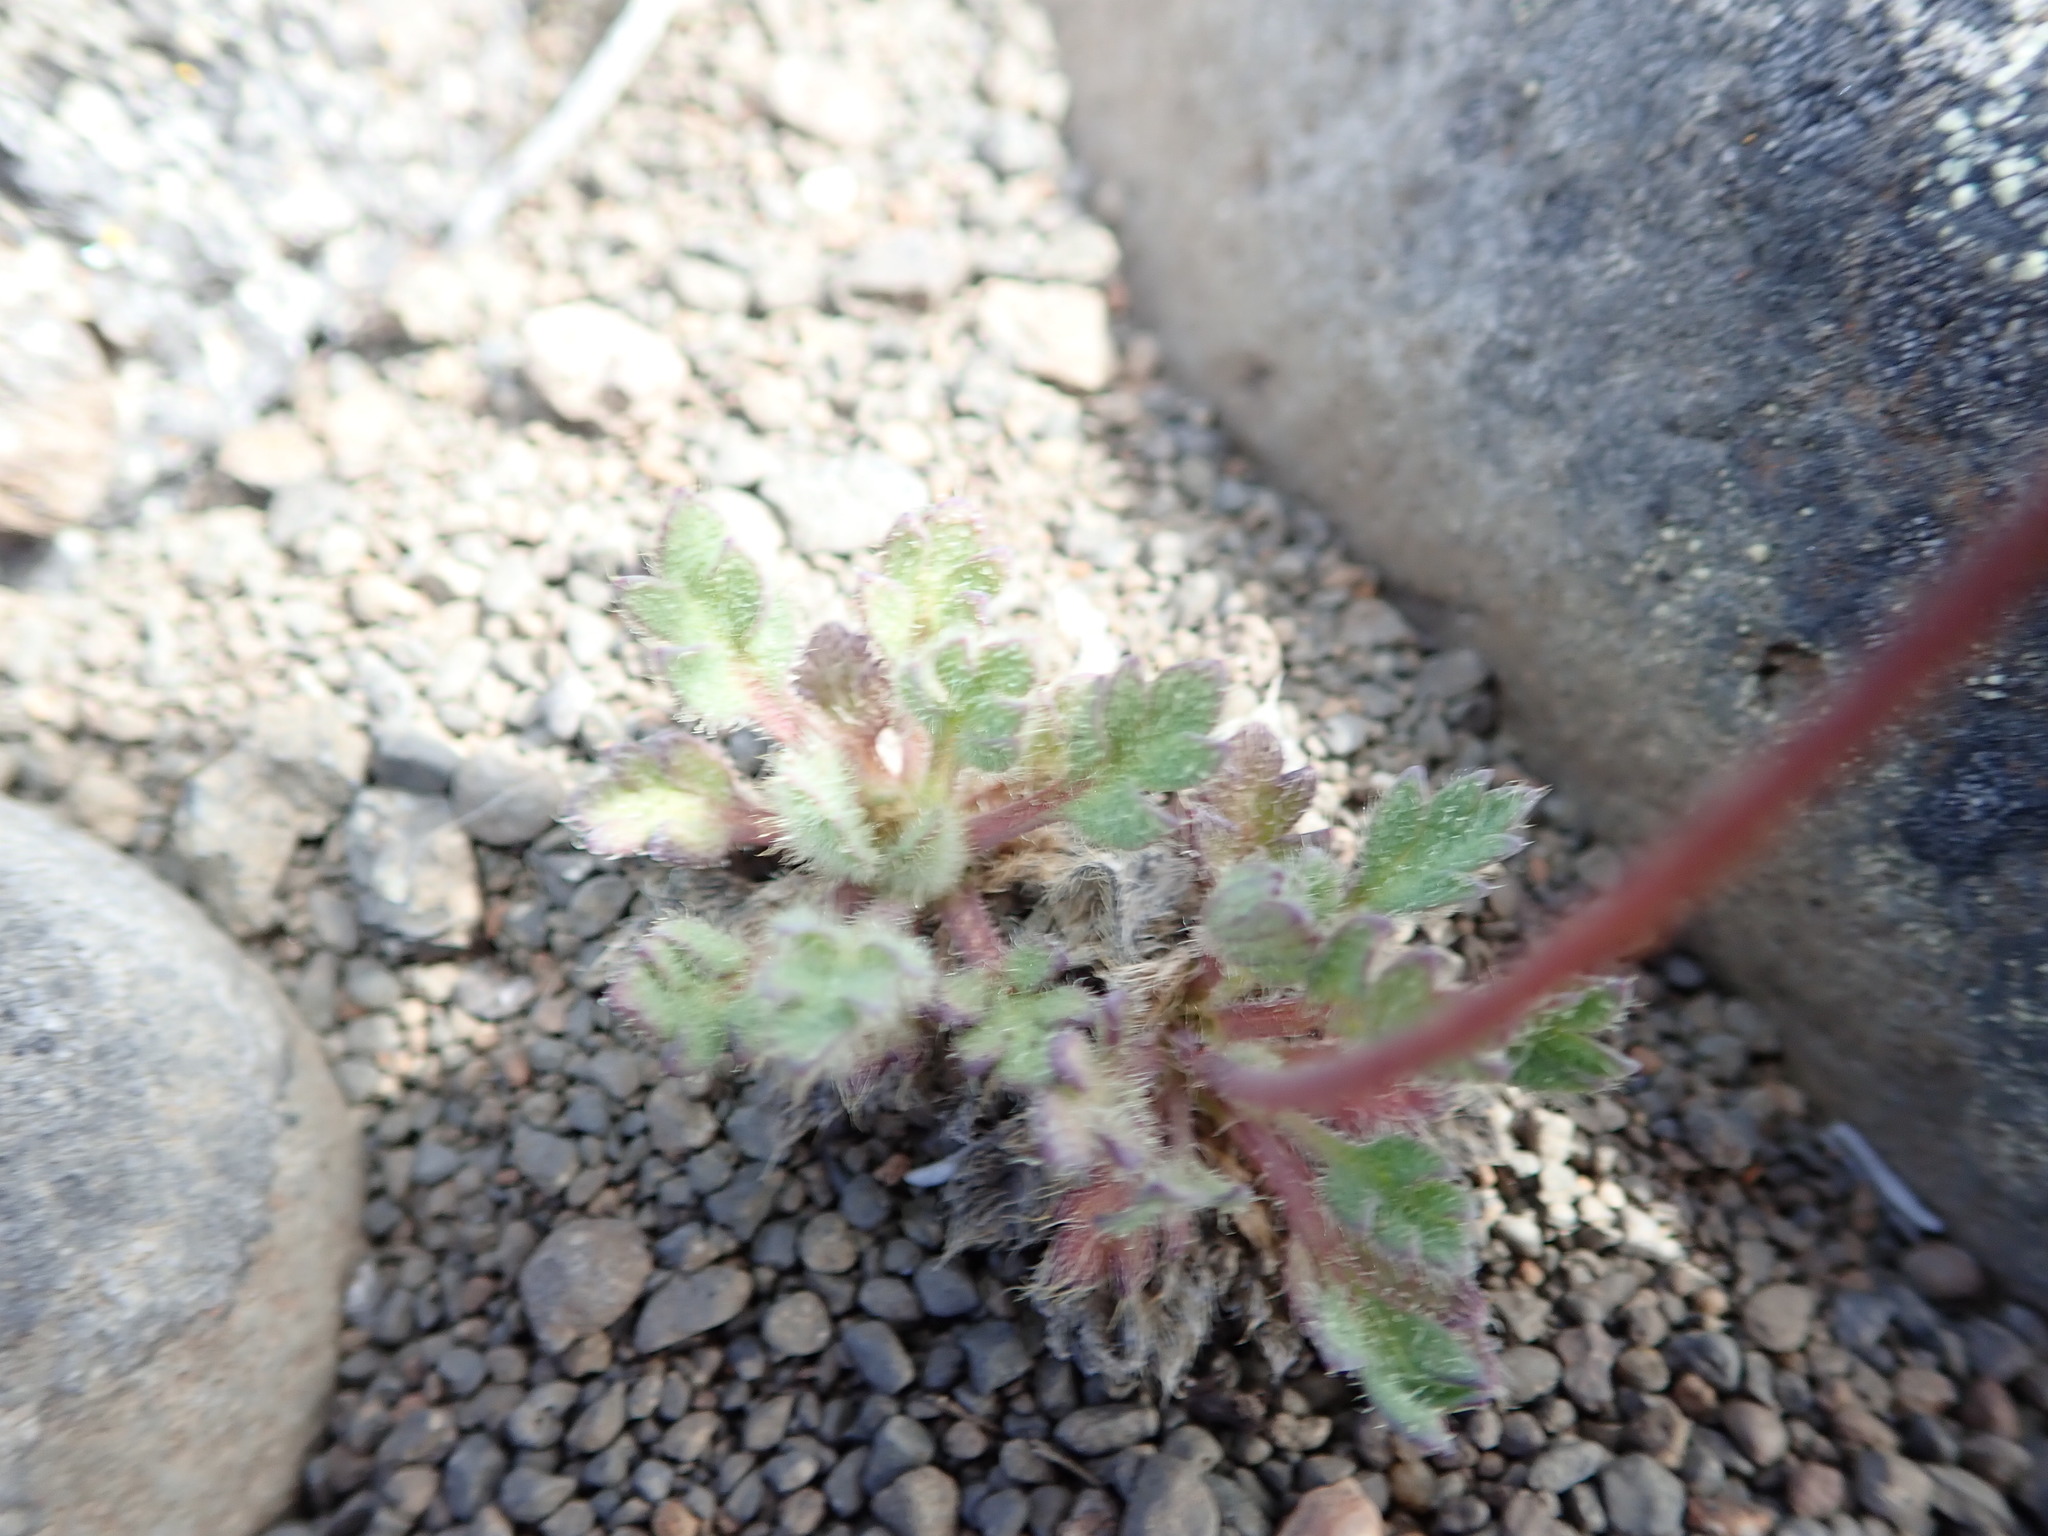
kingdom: Plantae
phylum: Tracheophyta
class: Magnoliopsida
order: Ranunculales
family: Papaveraceae
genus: Papaver
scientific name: Papaver radicatum
